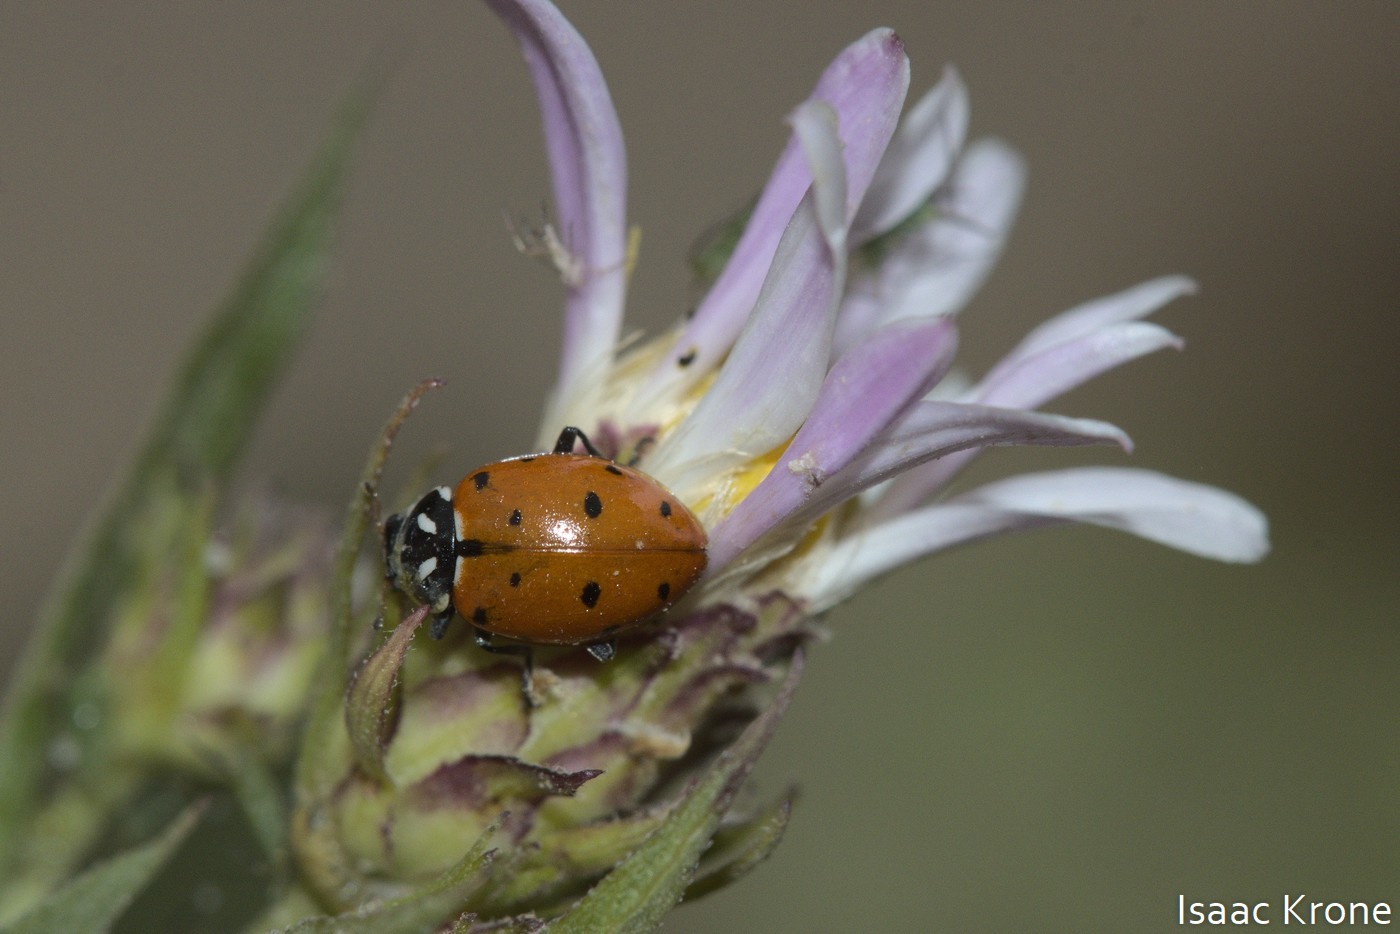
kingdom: Animalia
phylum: Arthropoda
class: Insecta
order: Coleoptera
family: Coccinellidae
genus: Hippodamia
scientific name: Hippodamia convergens
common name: Convergent lady beetle
